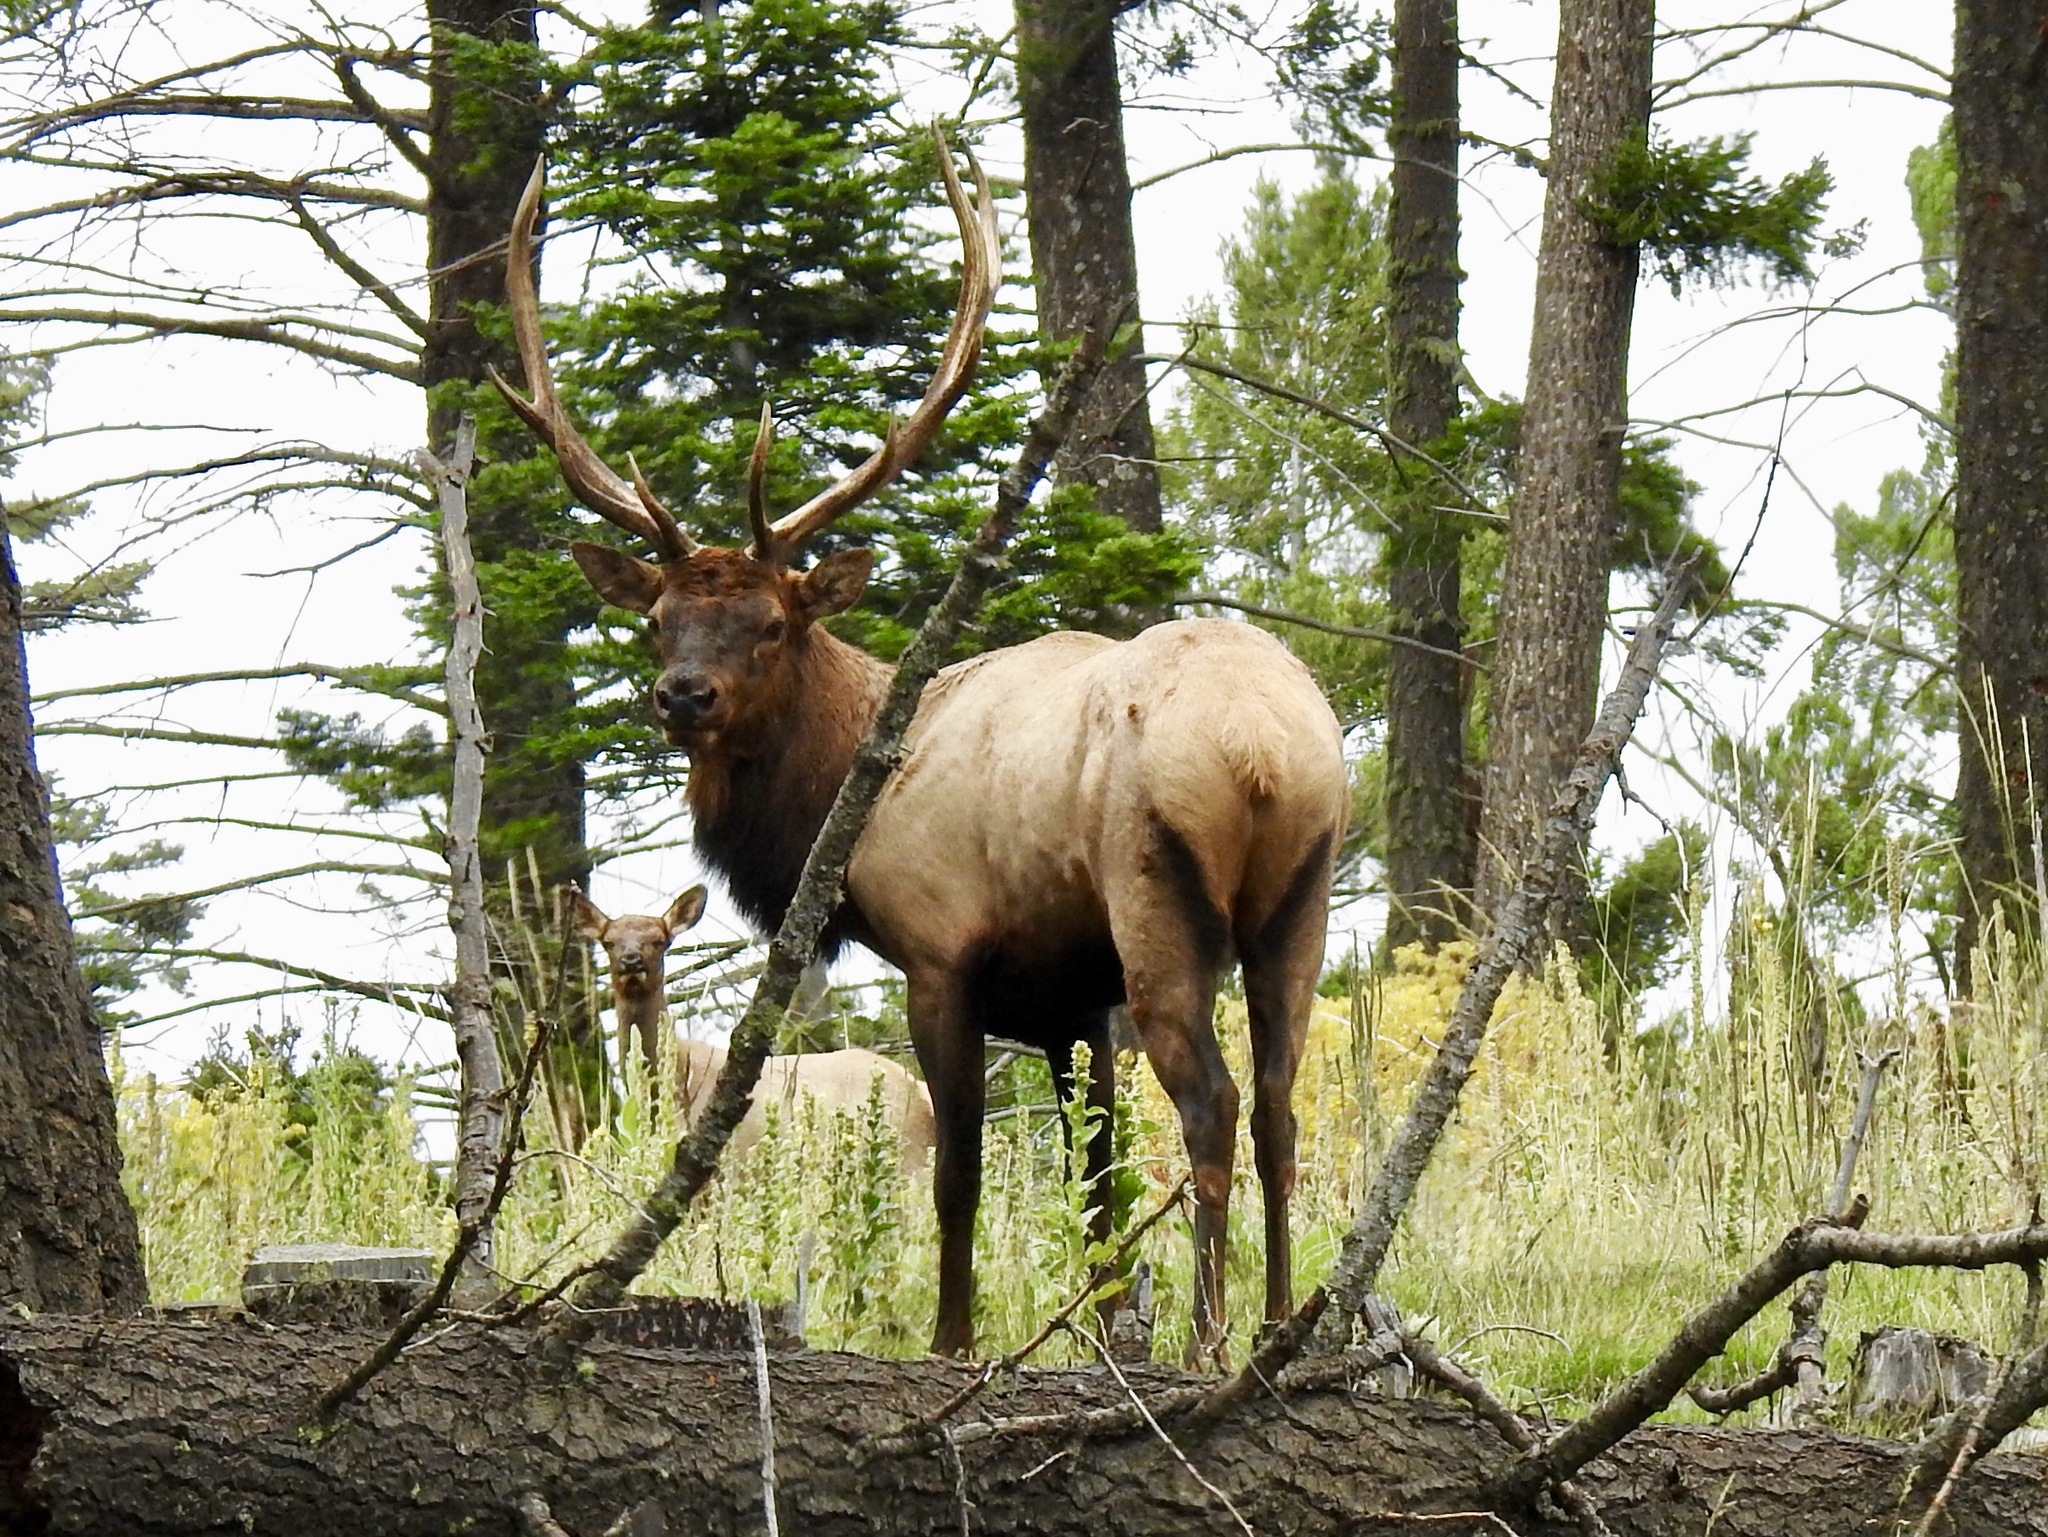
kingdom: Animalia
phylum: Chordata
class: Mammalia
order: Artiodactyla
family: Cervidae
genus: Cervus
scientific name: Cervus elaphus
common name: Red deer
